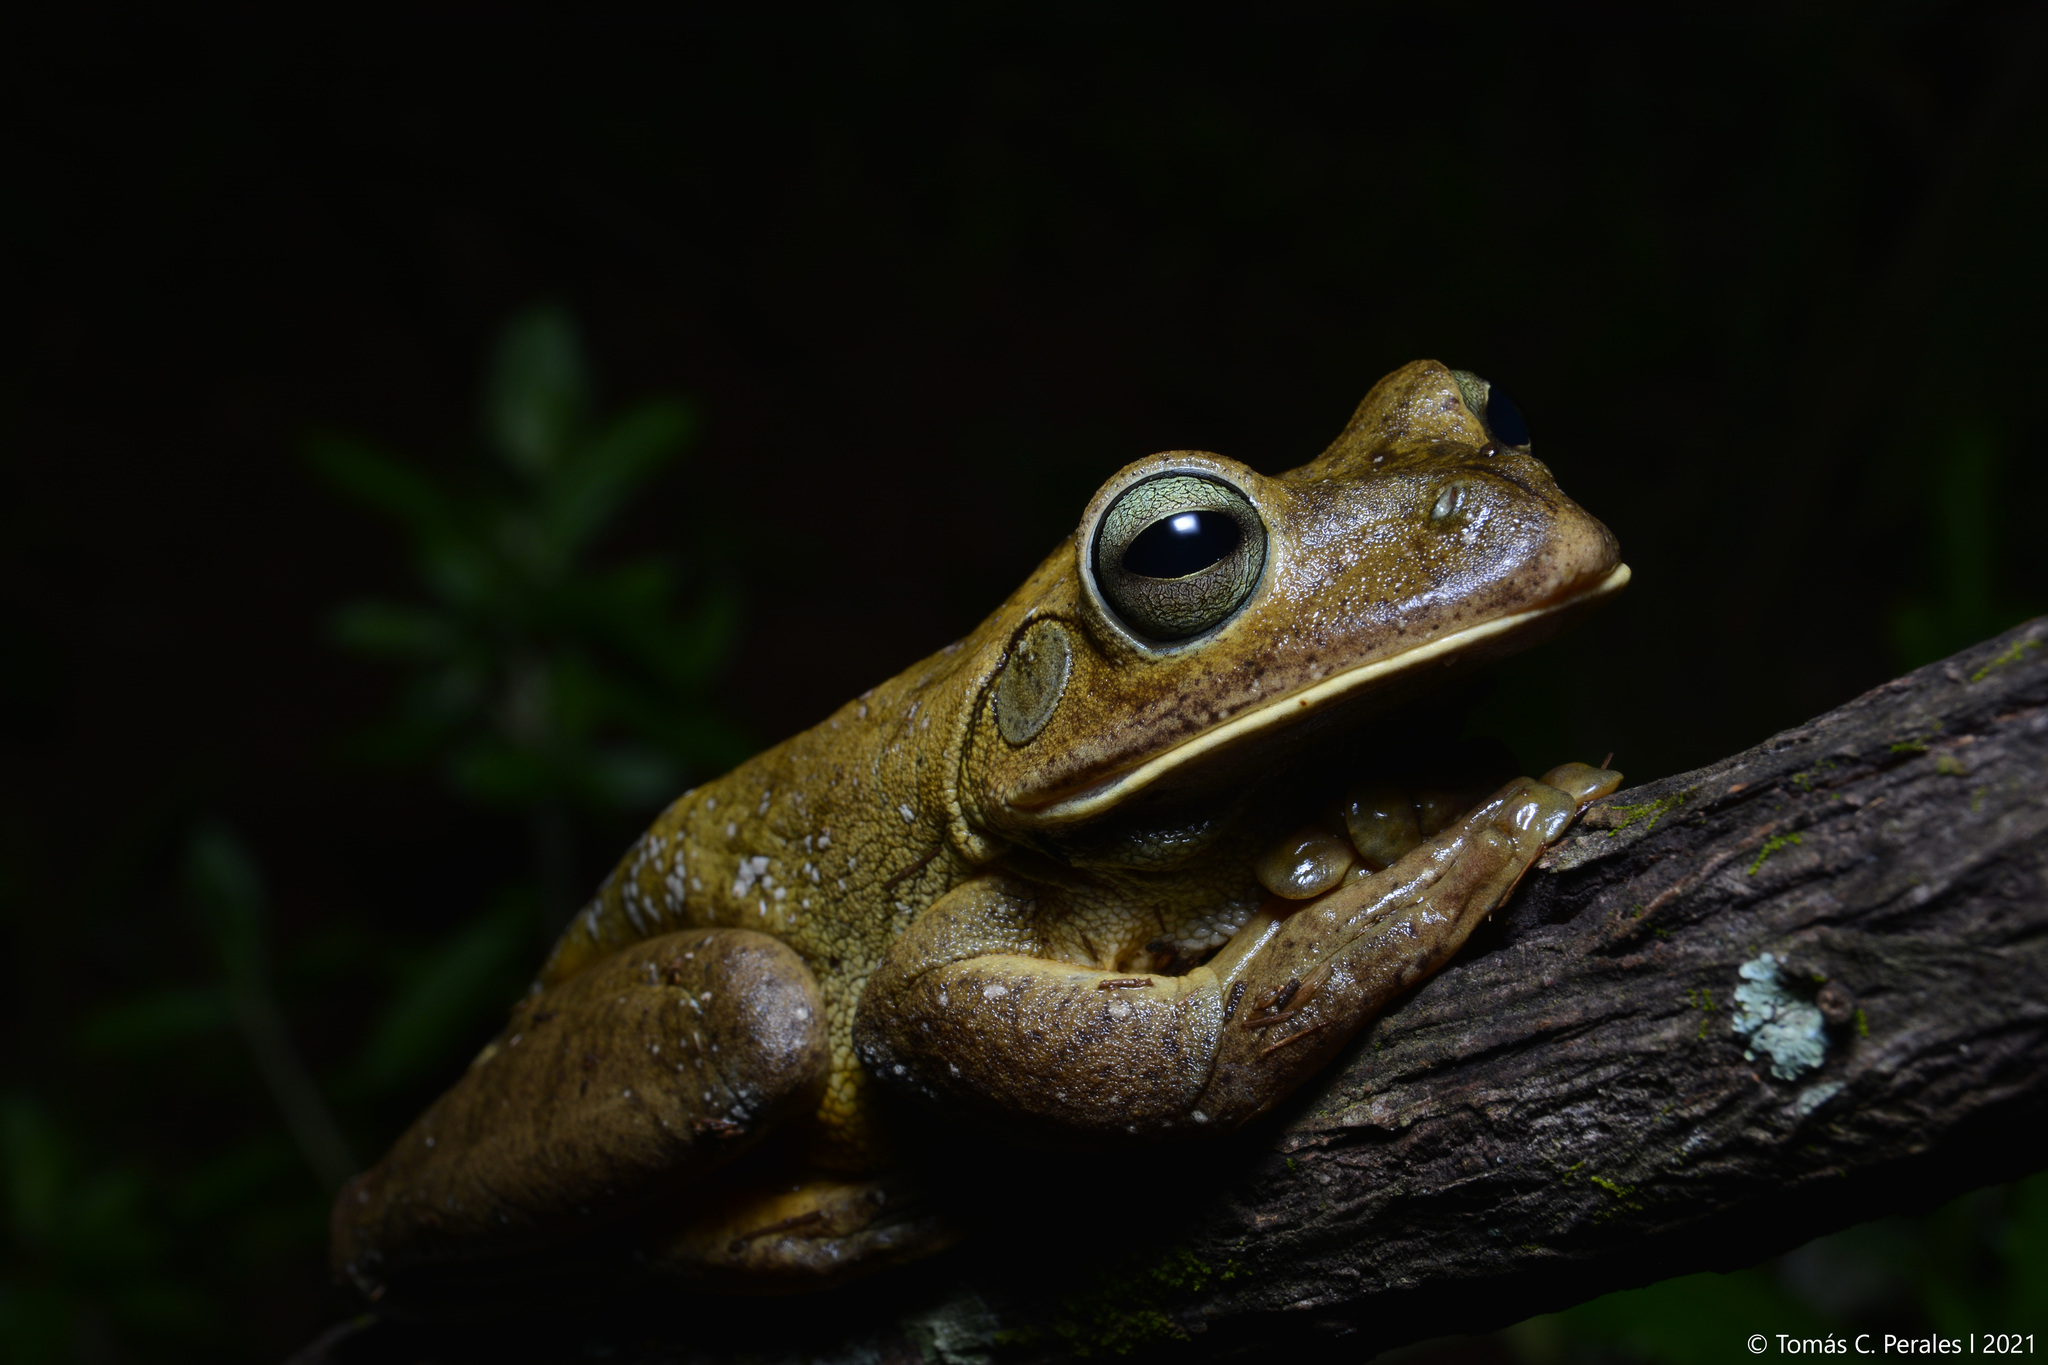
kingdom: Animalia
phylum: Chordata
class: Amphibia
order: Anura
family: Hylidae
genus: Boana
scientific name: Boana faber
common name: Blacksmith tree frog
